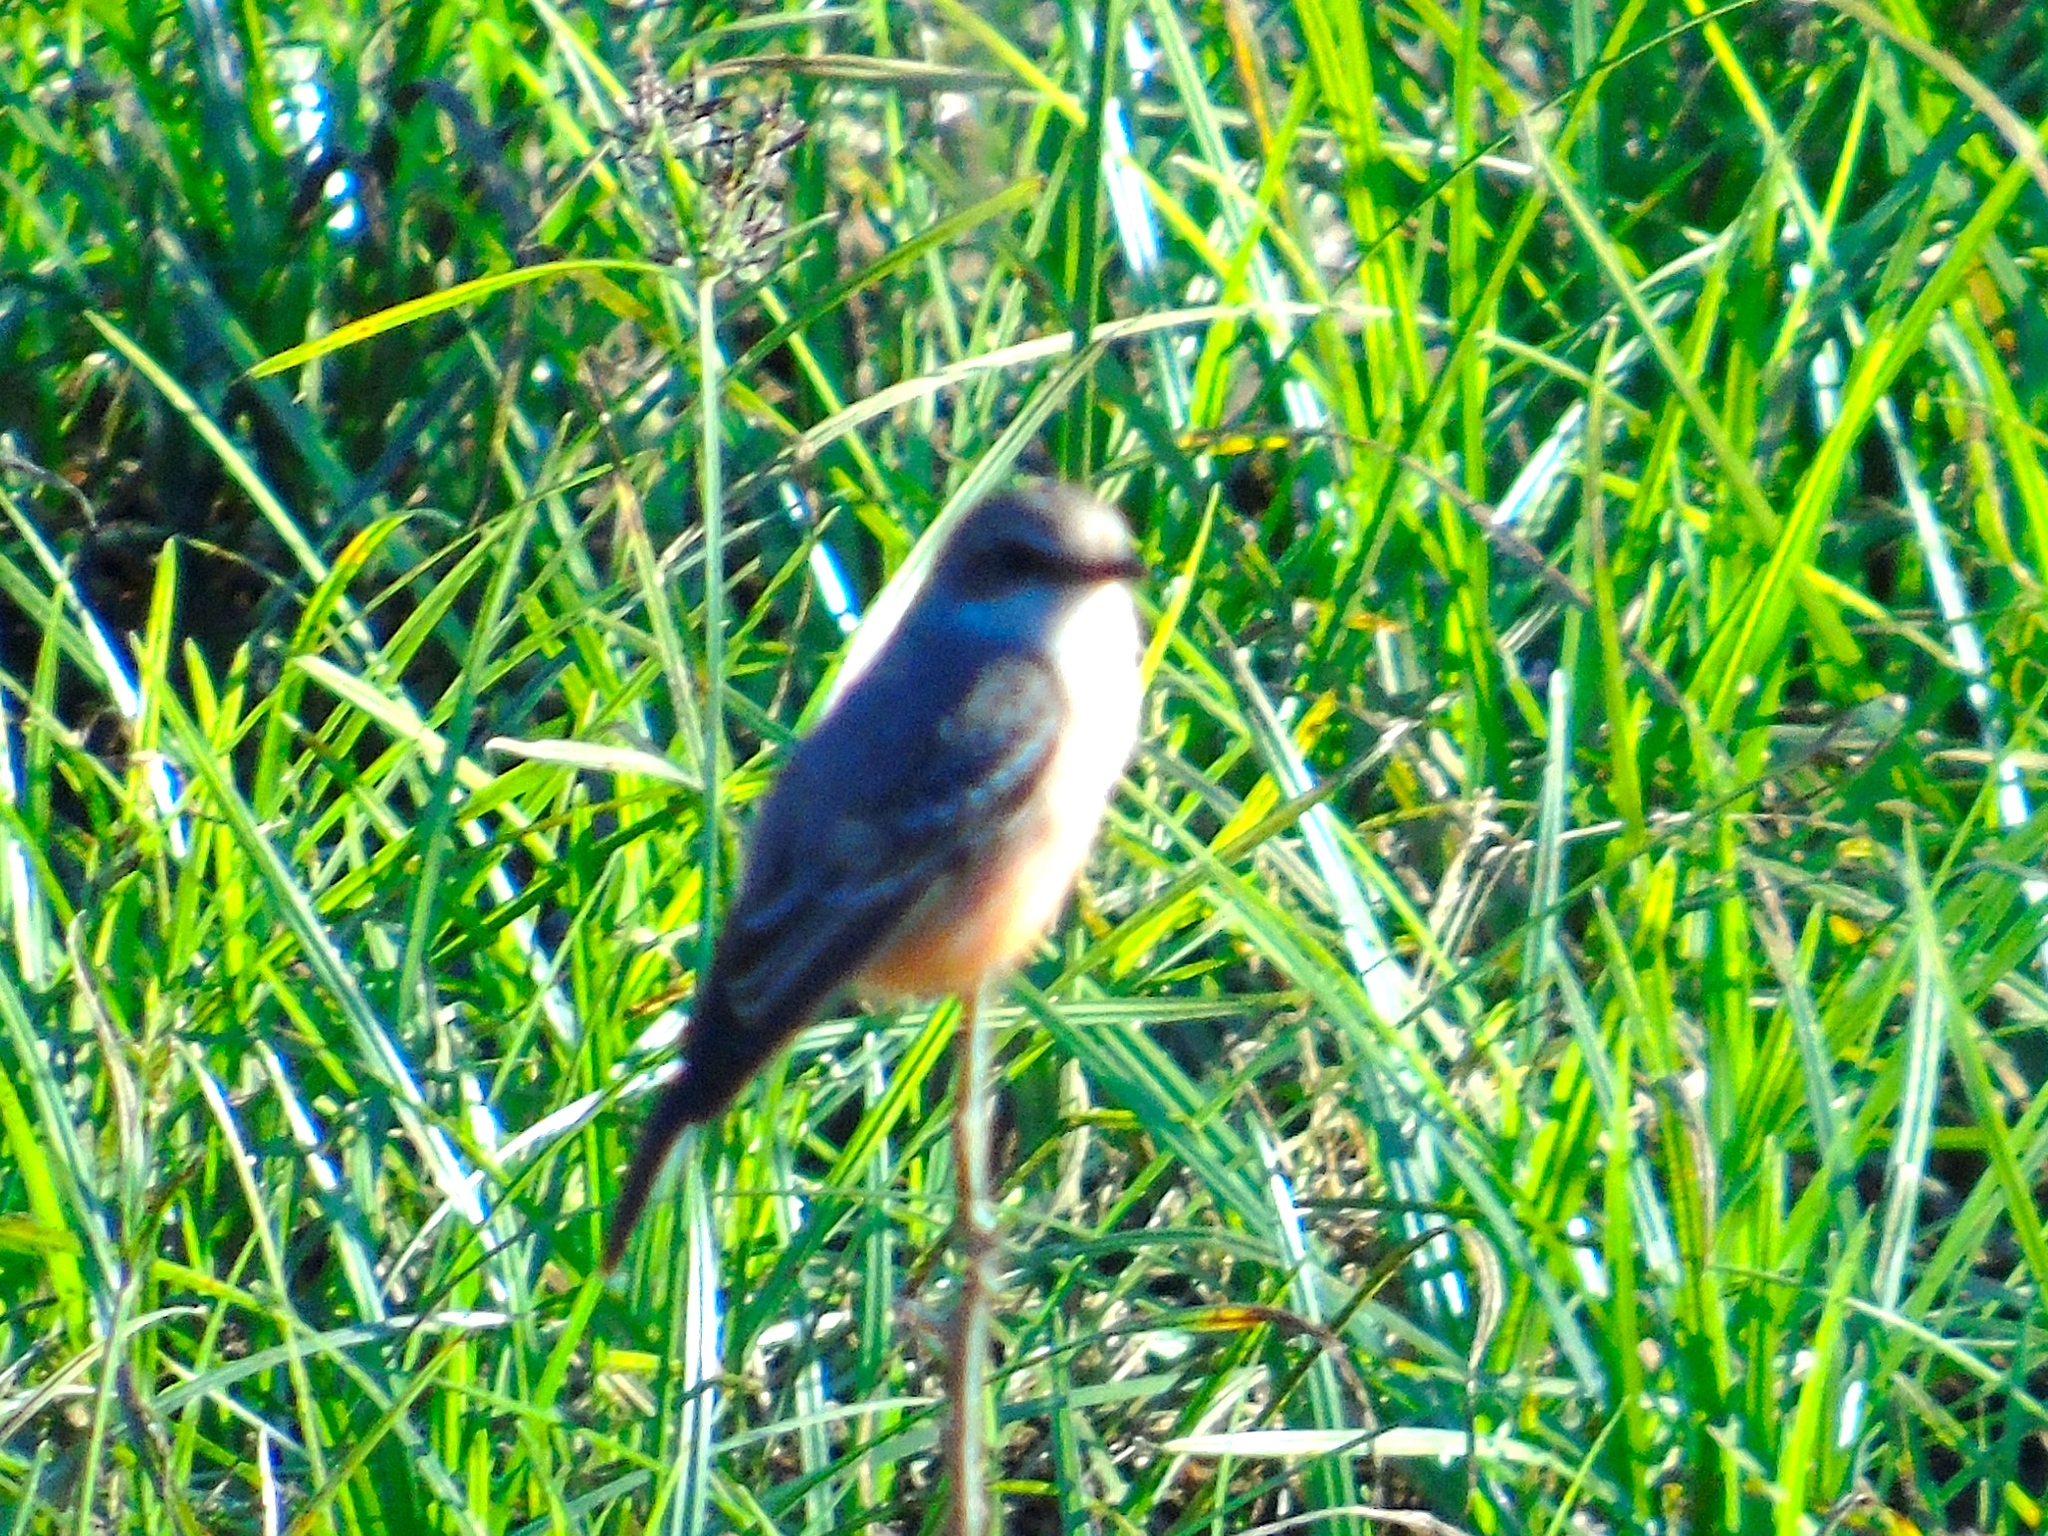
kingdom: Animalia
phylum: Chordata
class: Aves
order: Passeriformes
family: Tyrannidae
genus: Pyrocephalus
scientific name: Pyrocephalus rubinus
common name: Vermilion flycatcher
